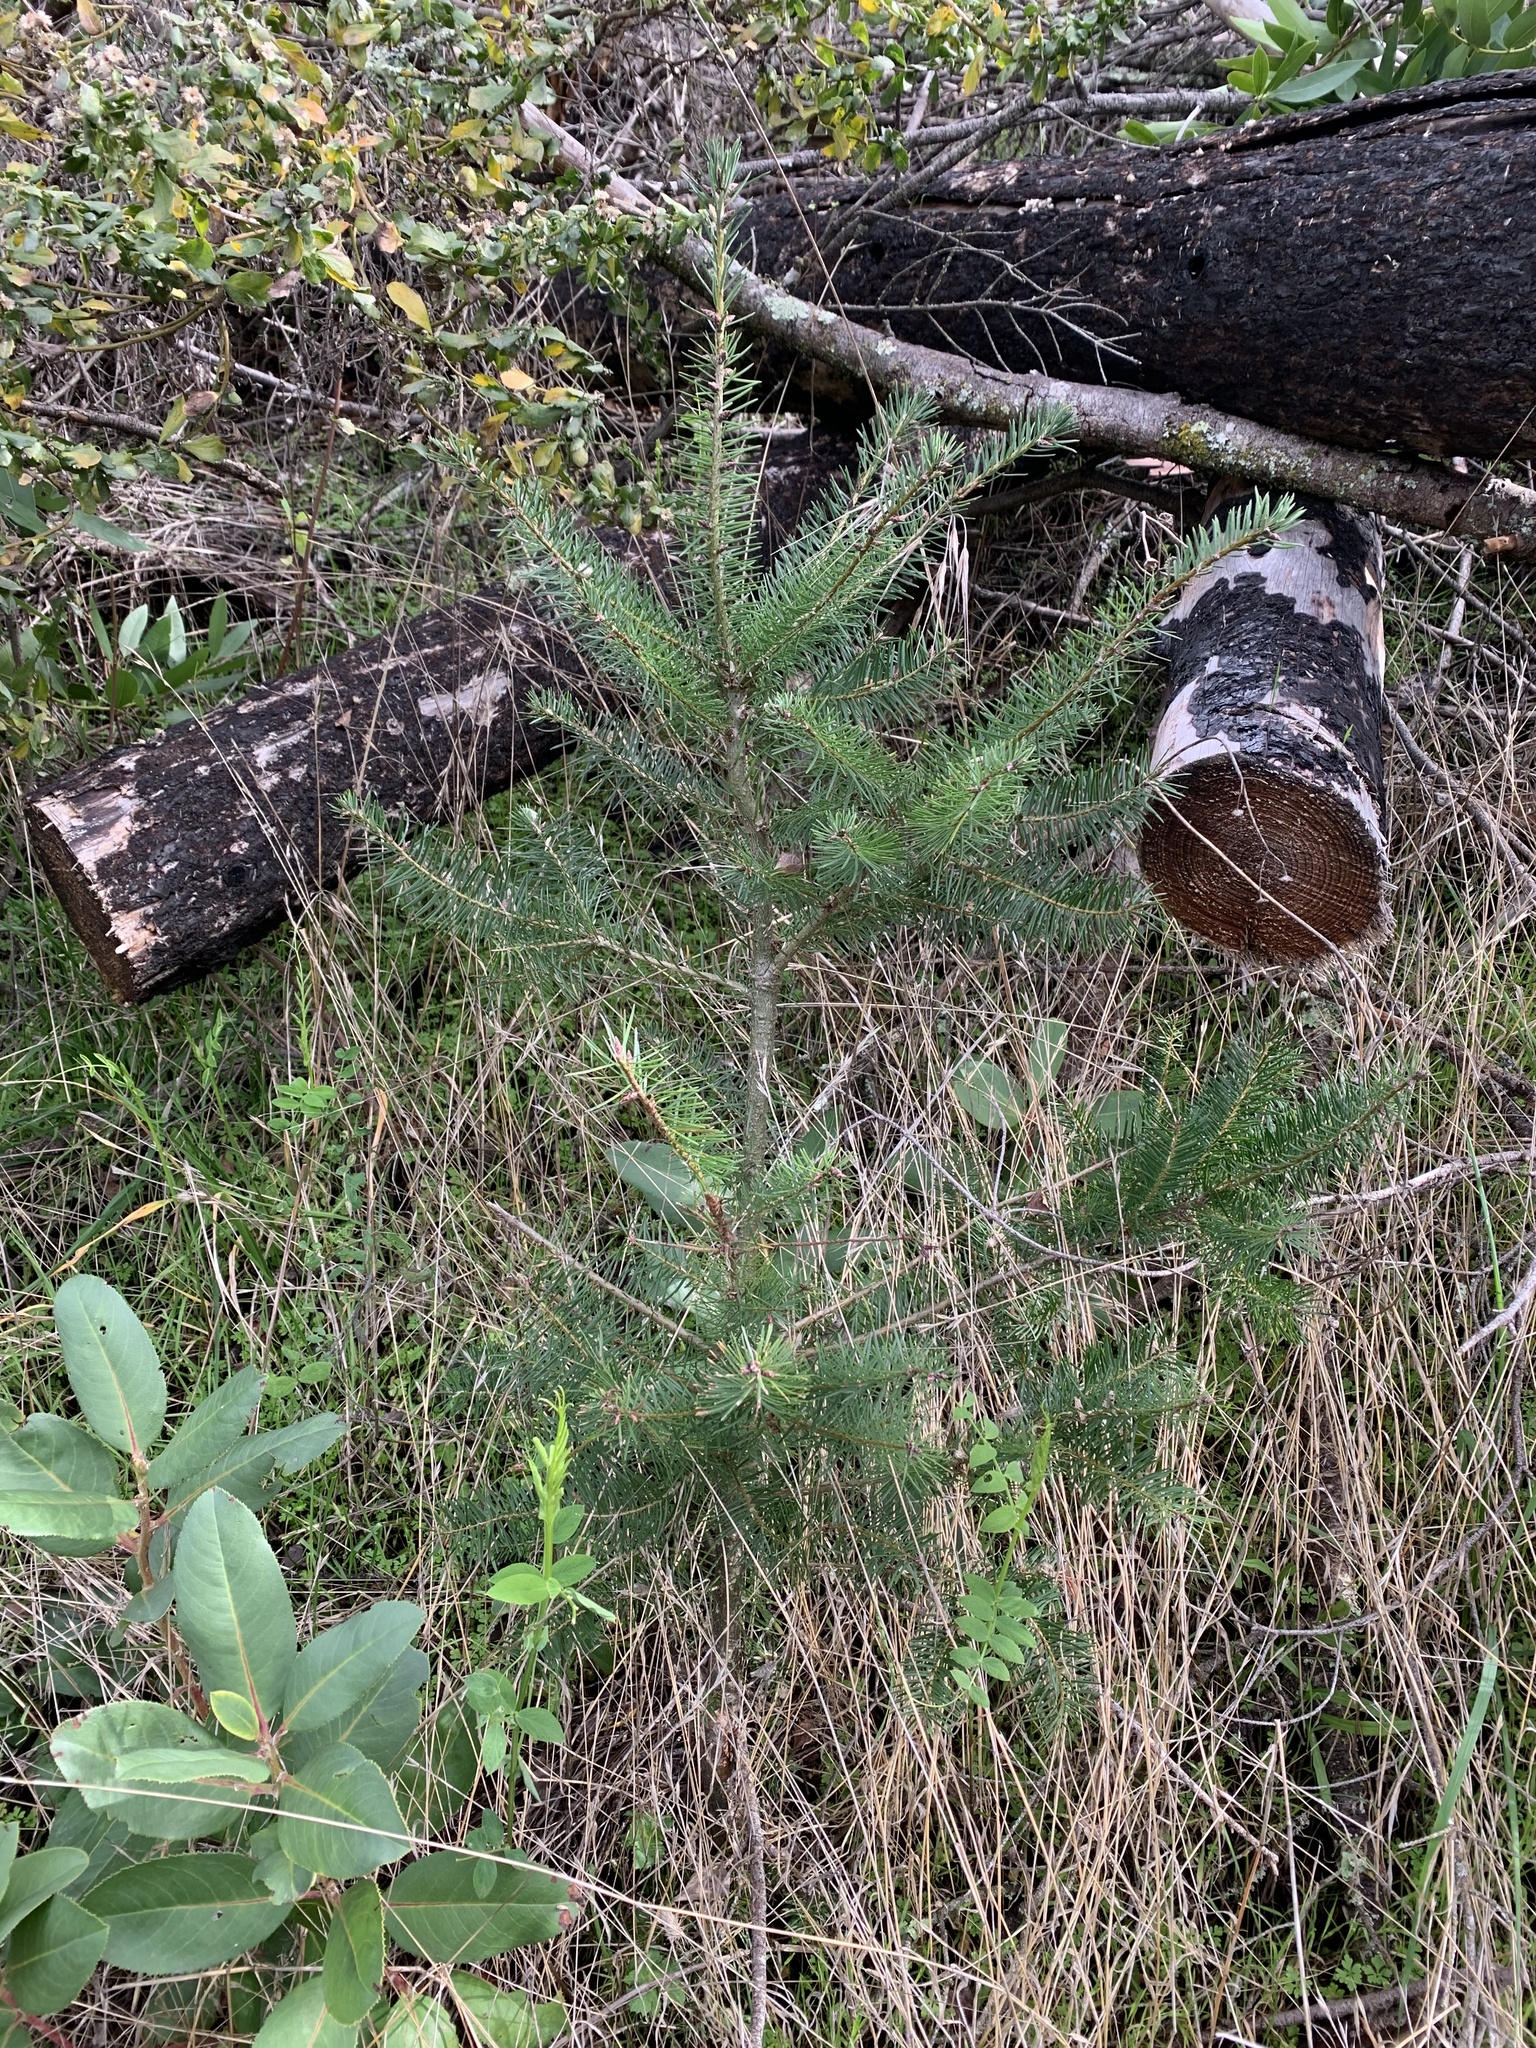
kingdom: Plantae
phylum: Tracheophyta
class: Pinopsida
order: Pinales
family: Pinaceae
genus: Pseudotsuga
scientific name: Pseudotsuga menziesii
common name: Douglas fir
